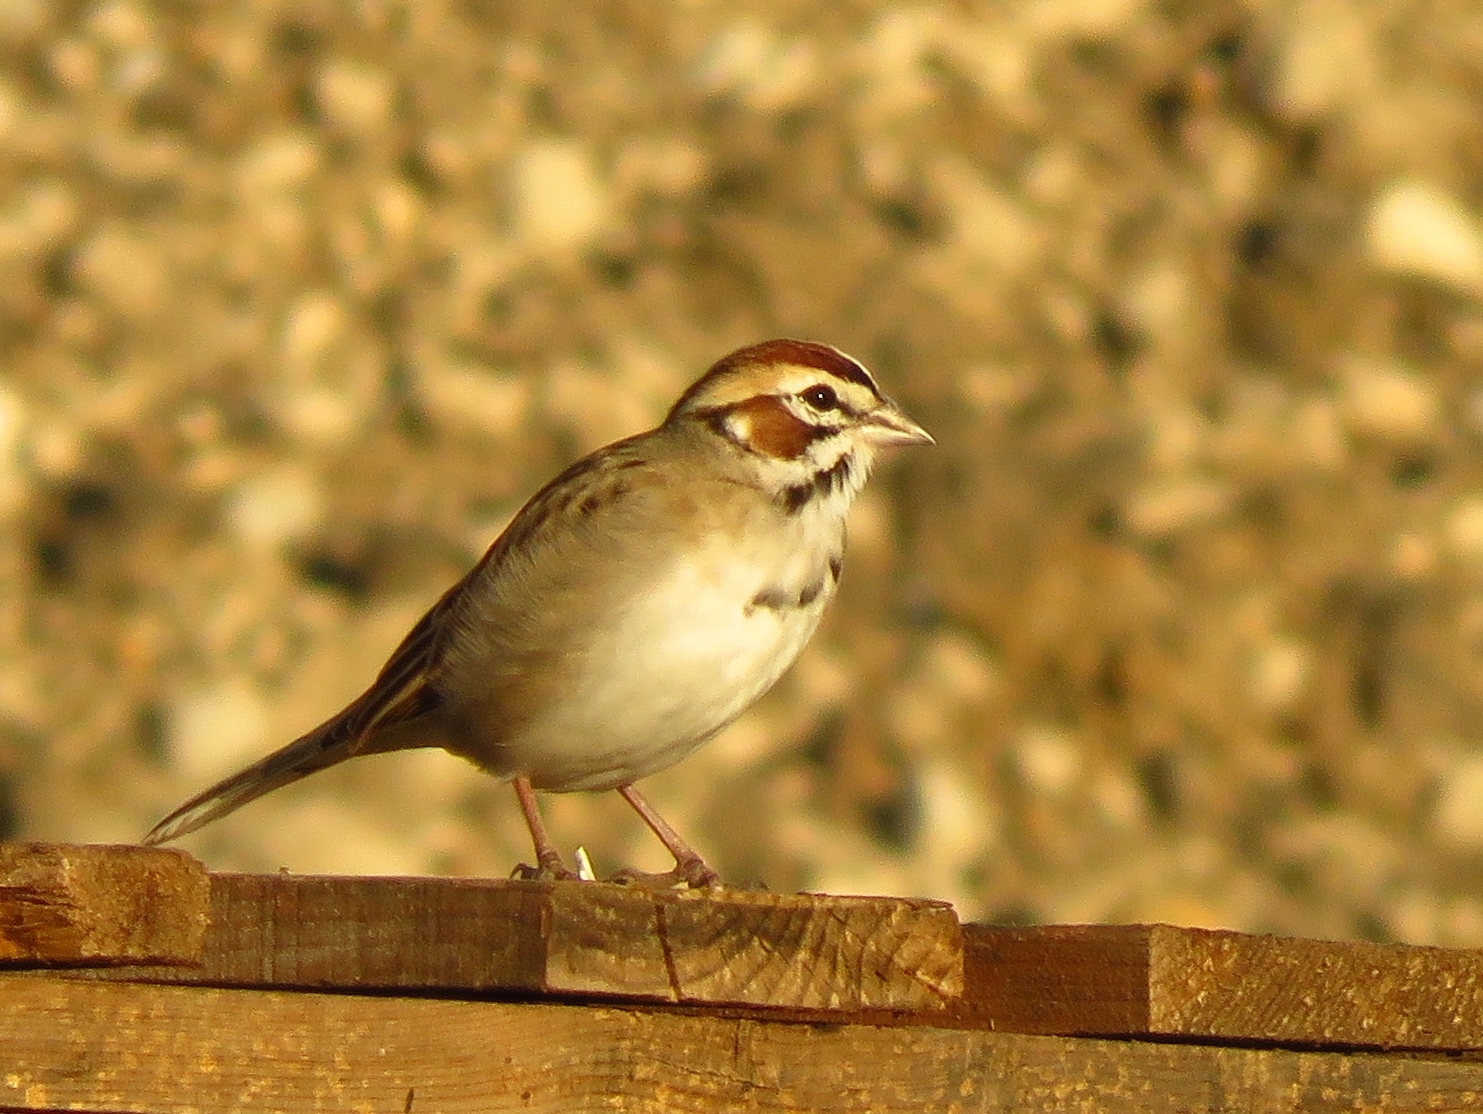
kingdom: Animalia
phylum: Chordata
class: Aves
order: Passeriformes
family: Passerellidae
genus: Chondestes
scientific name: Chondestes grammacus
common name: Lark sparrow
